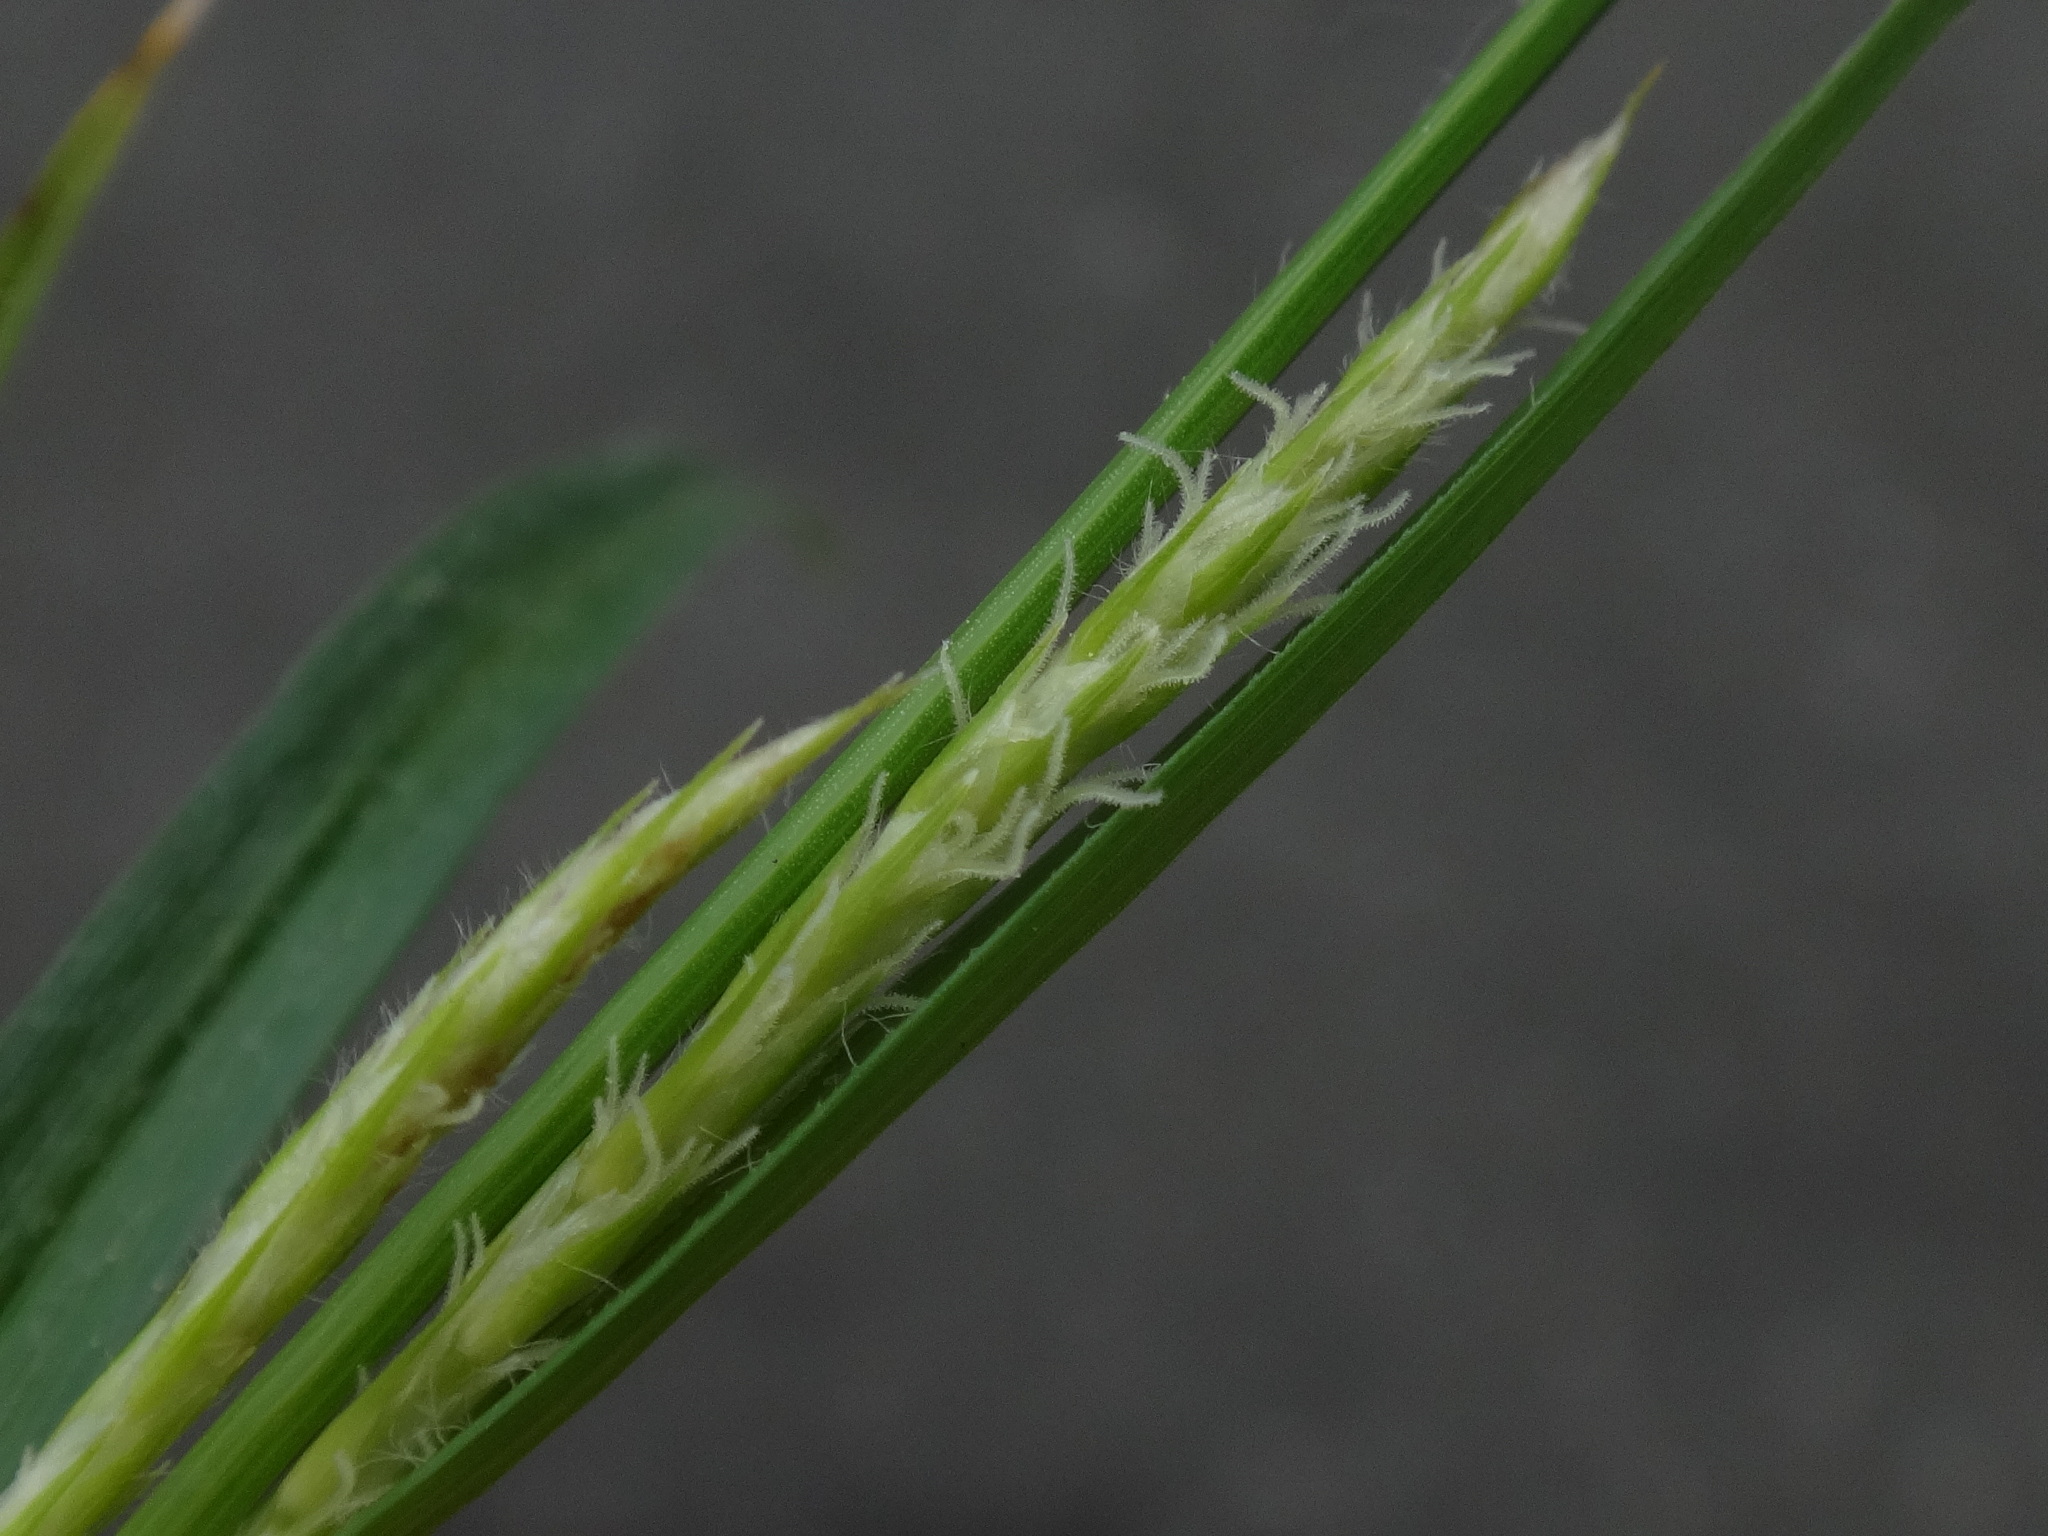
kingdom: Plantae
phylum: Tracheophyta
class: Liliopsida
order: Poales
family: Cyperaceae
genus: Carex
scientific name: Carex hirta
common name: Hairy sedge
